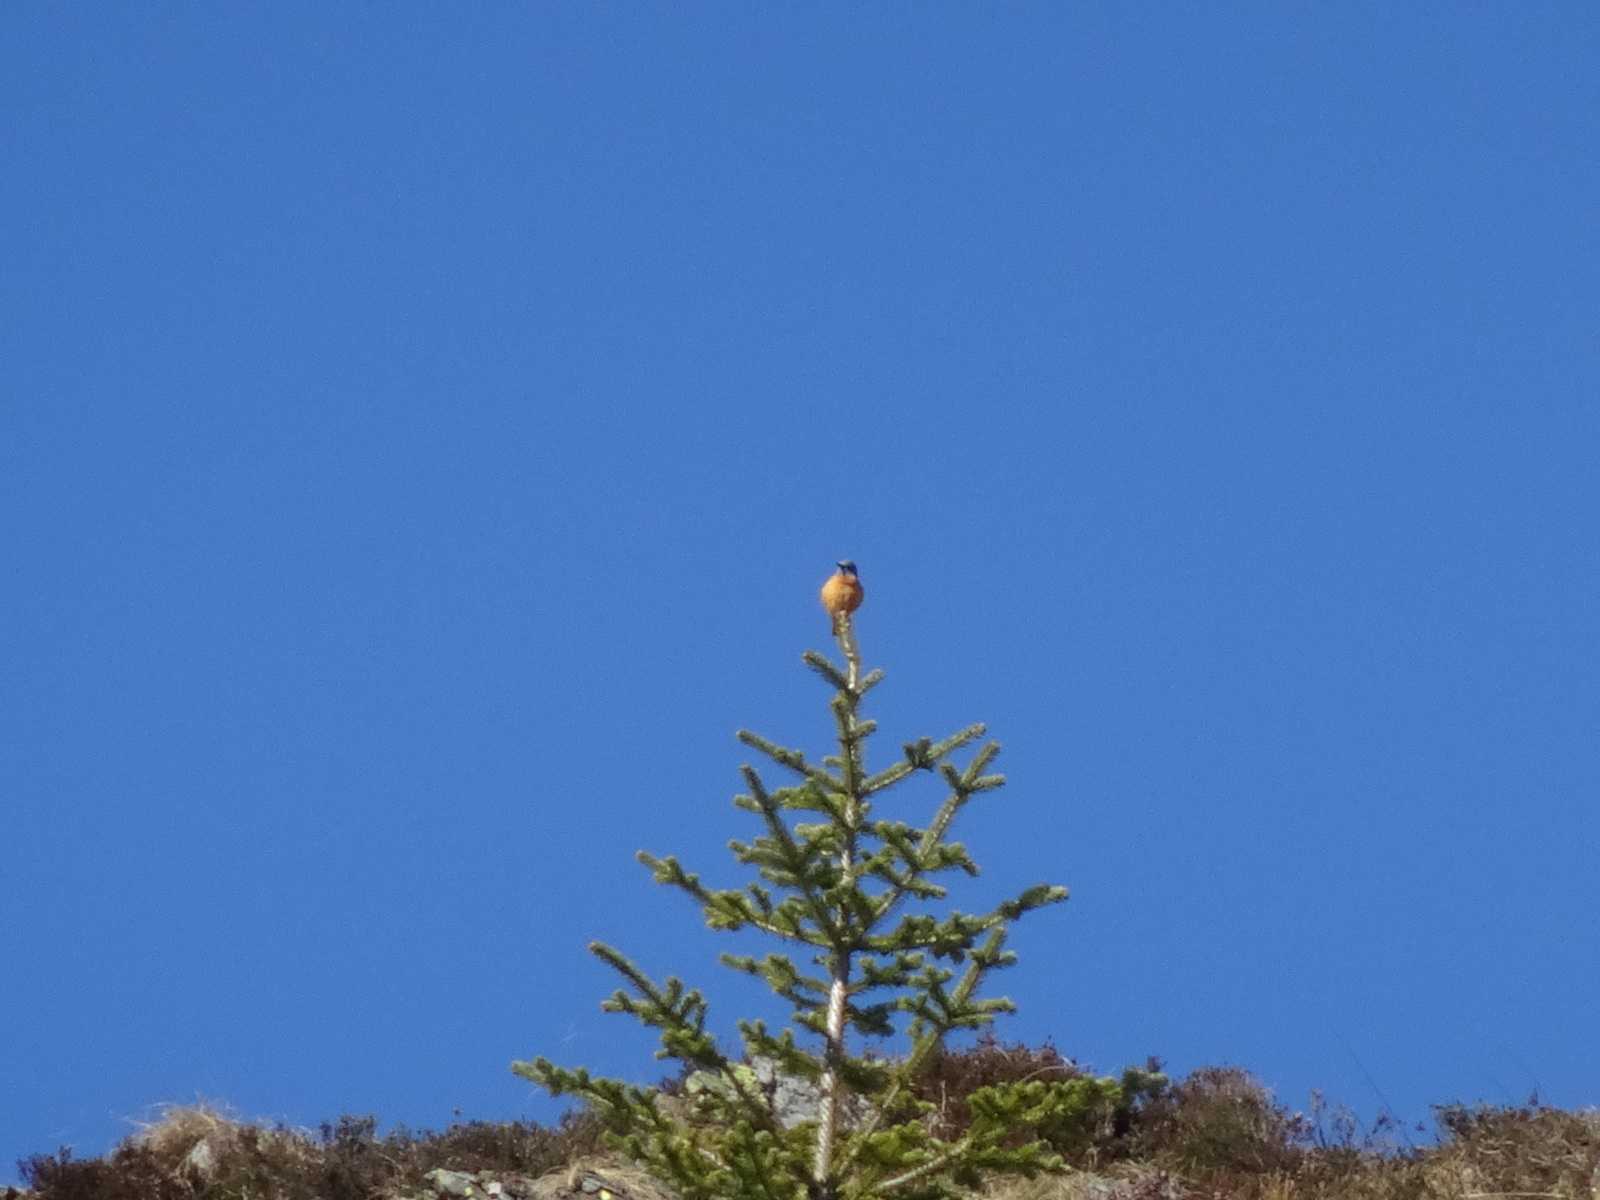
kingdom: Animalia
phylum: Chordata
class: Aves
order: Passeriformes
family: Muscicapidae
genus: Monticola
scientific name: Monticola saxatilis
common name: Rufous-tailed rock thrush
